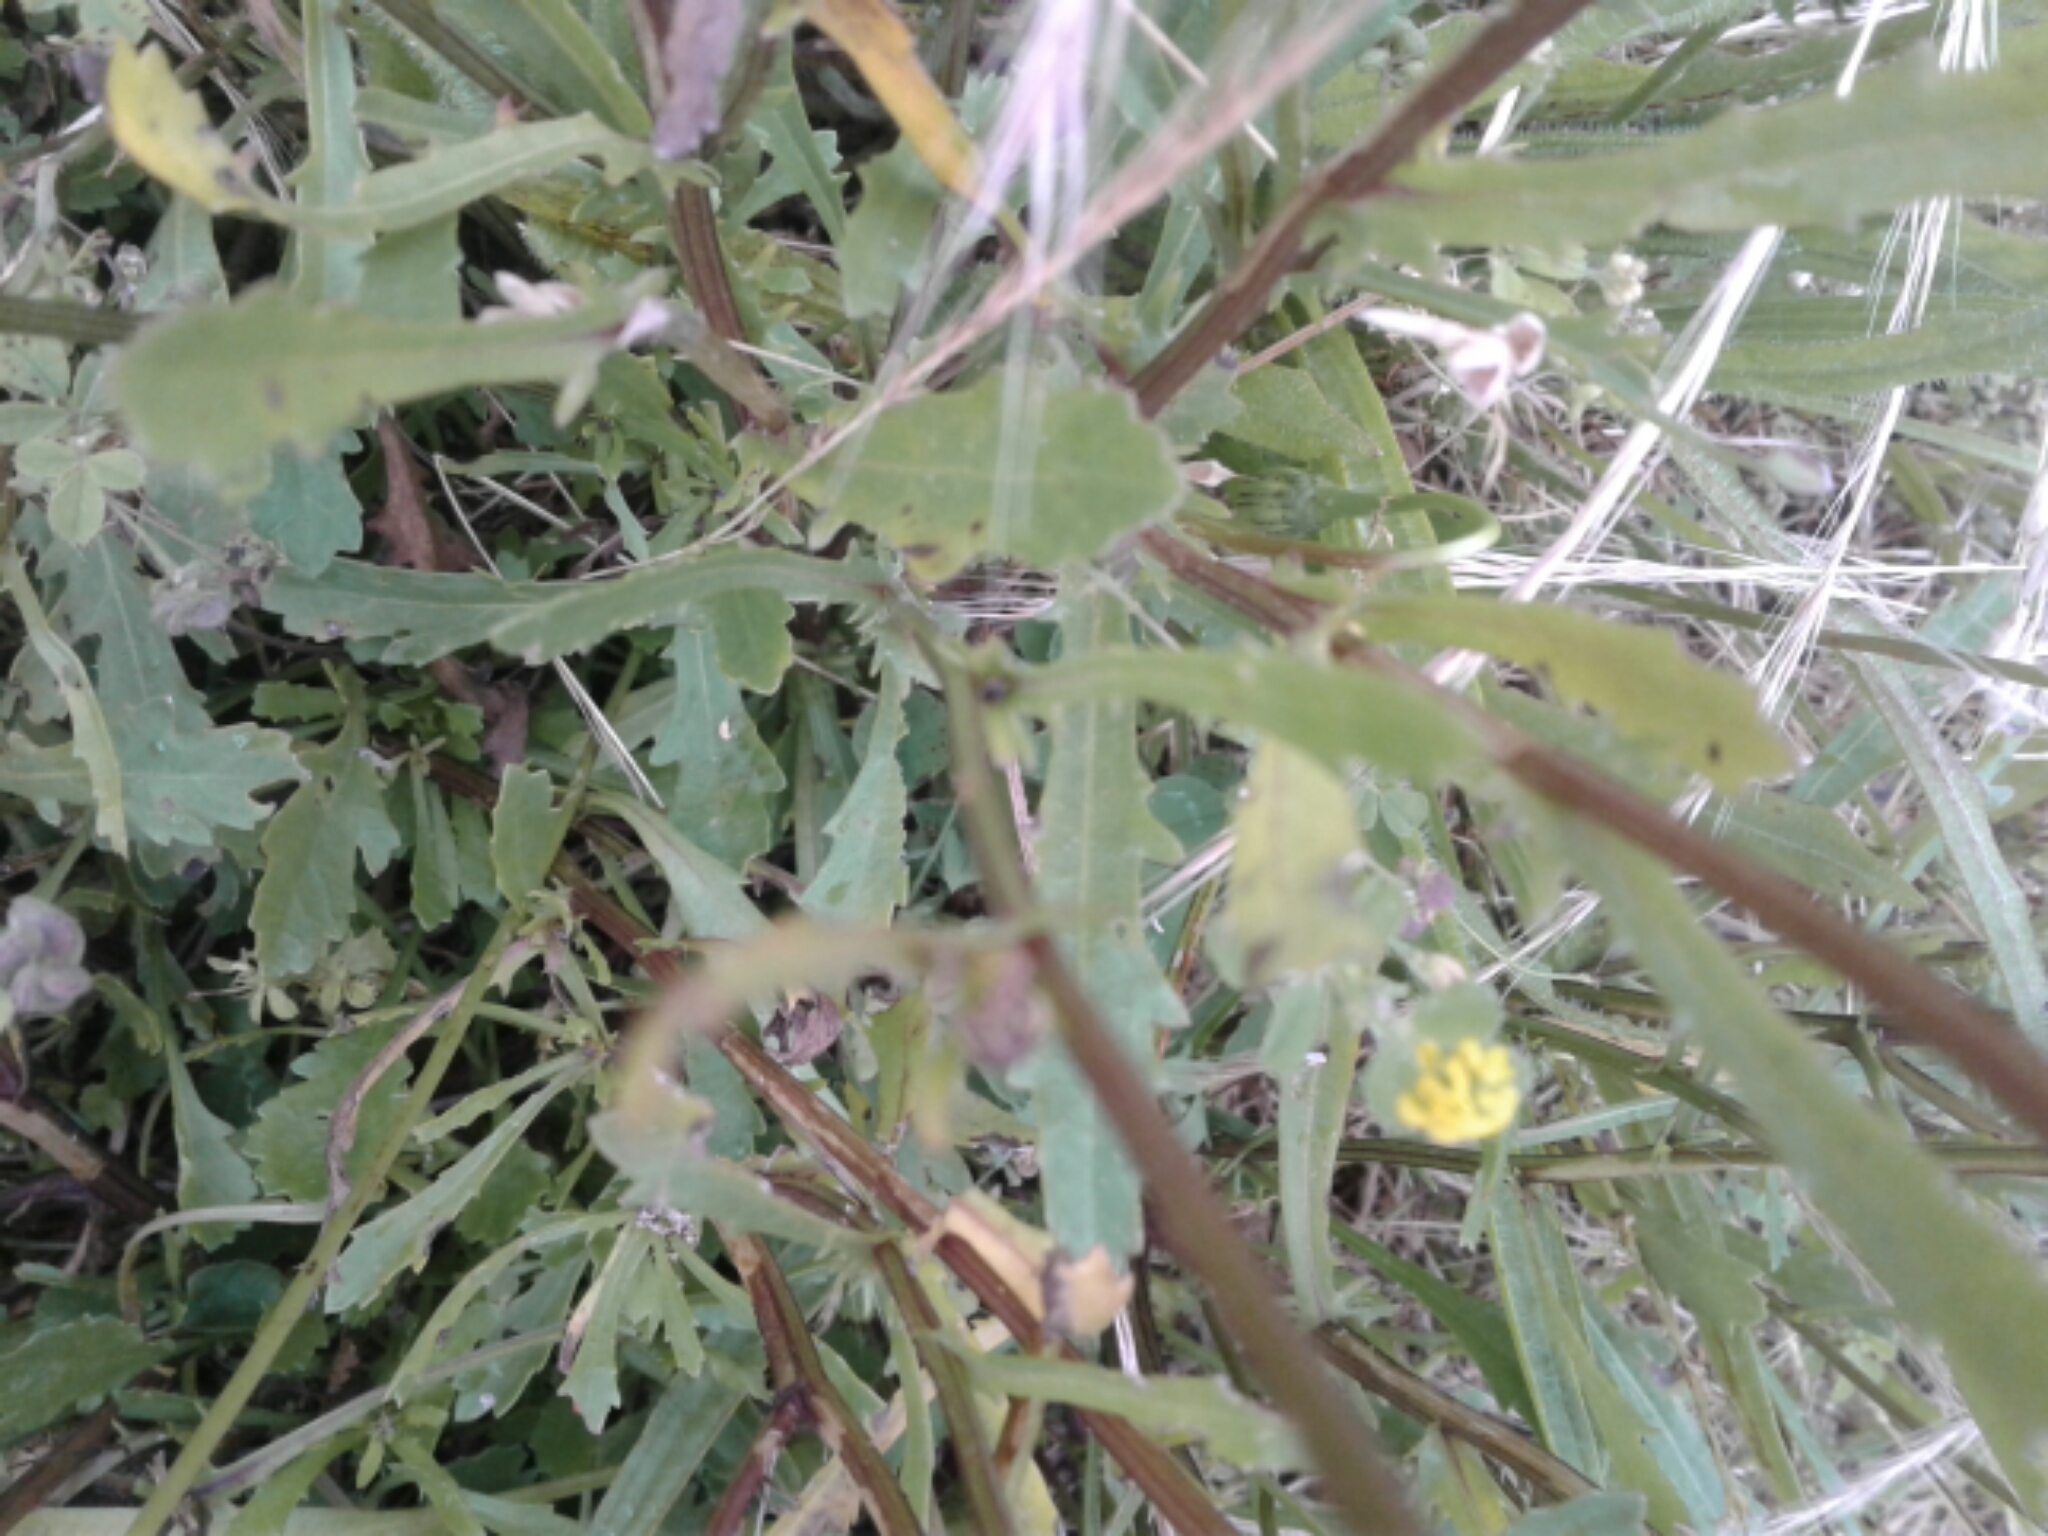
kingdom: Plantae
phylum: Tracheophyta
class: Magnoliopsida
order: Asterales
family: Asteraceae
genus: Leucanthemum
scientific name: Leucanthemum vulgare
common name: Oxeye daisy
